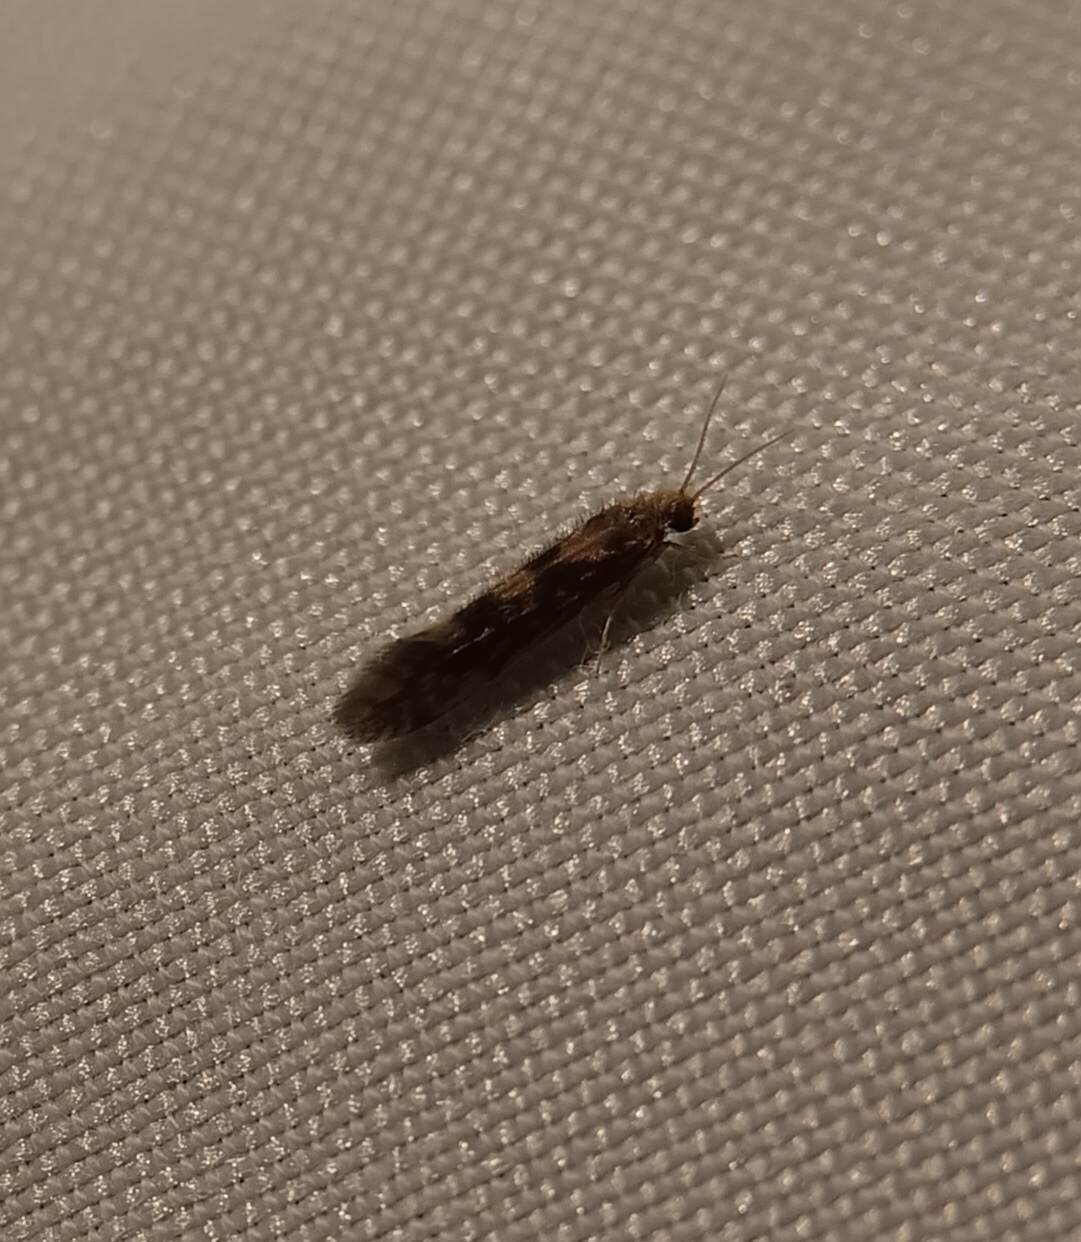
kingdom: Animalia
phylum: Arthropoda
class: Insecta
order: Trichoptera
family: Hydroptilidae
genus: Agraylea
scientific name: Agraylea multipunctata
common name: Salt and pepper microcaddisfly
